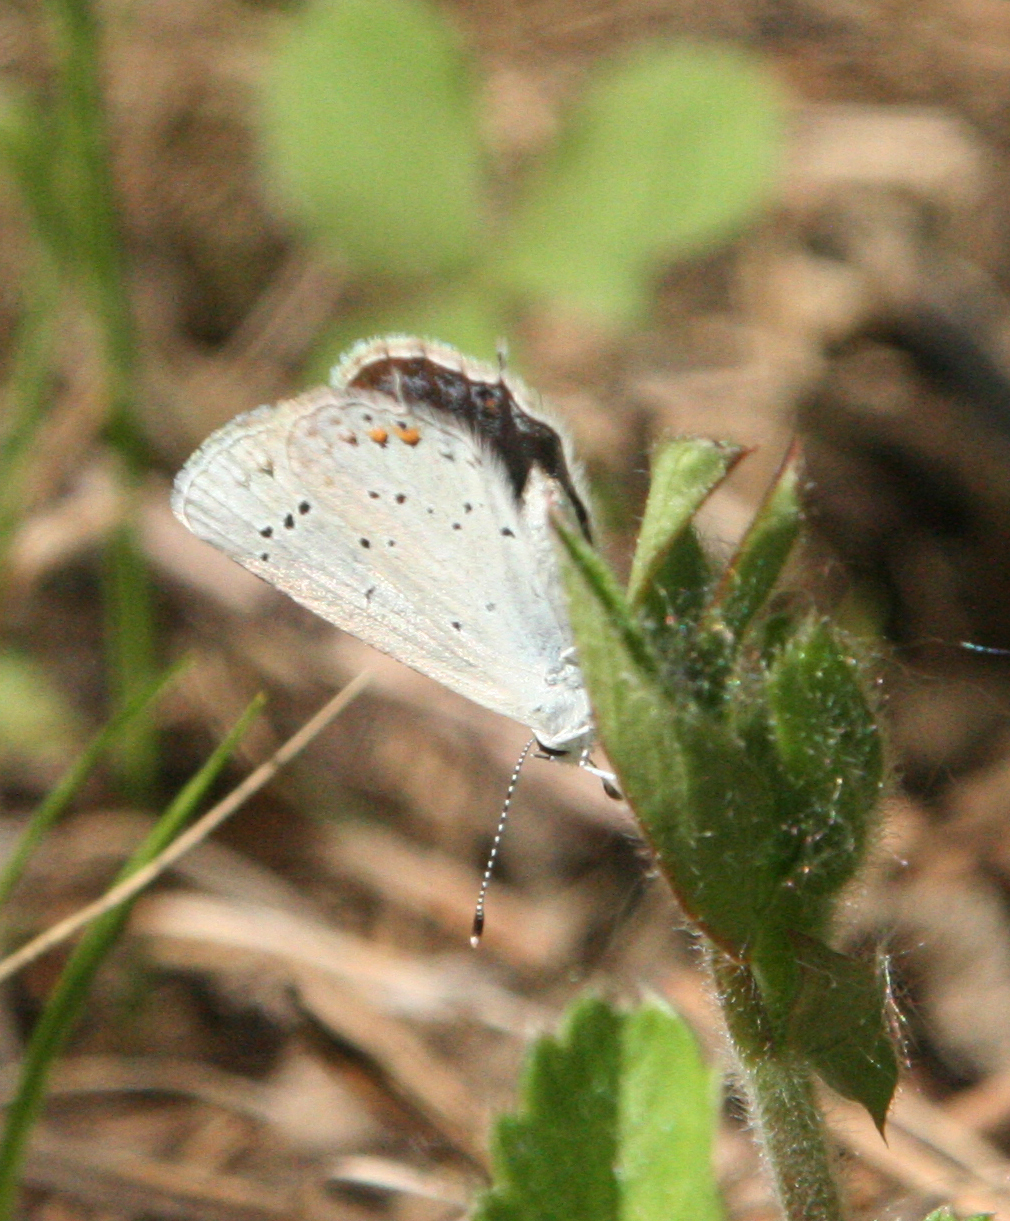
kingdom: Animalia
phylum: Arthropoda
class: Insecta
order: Lepidoptera
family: Lycaenidae
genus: Elkalyce
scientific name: Elkalyce argiades
